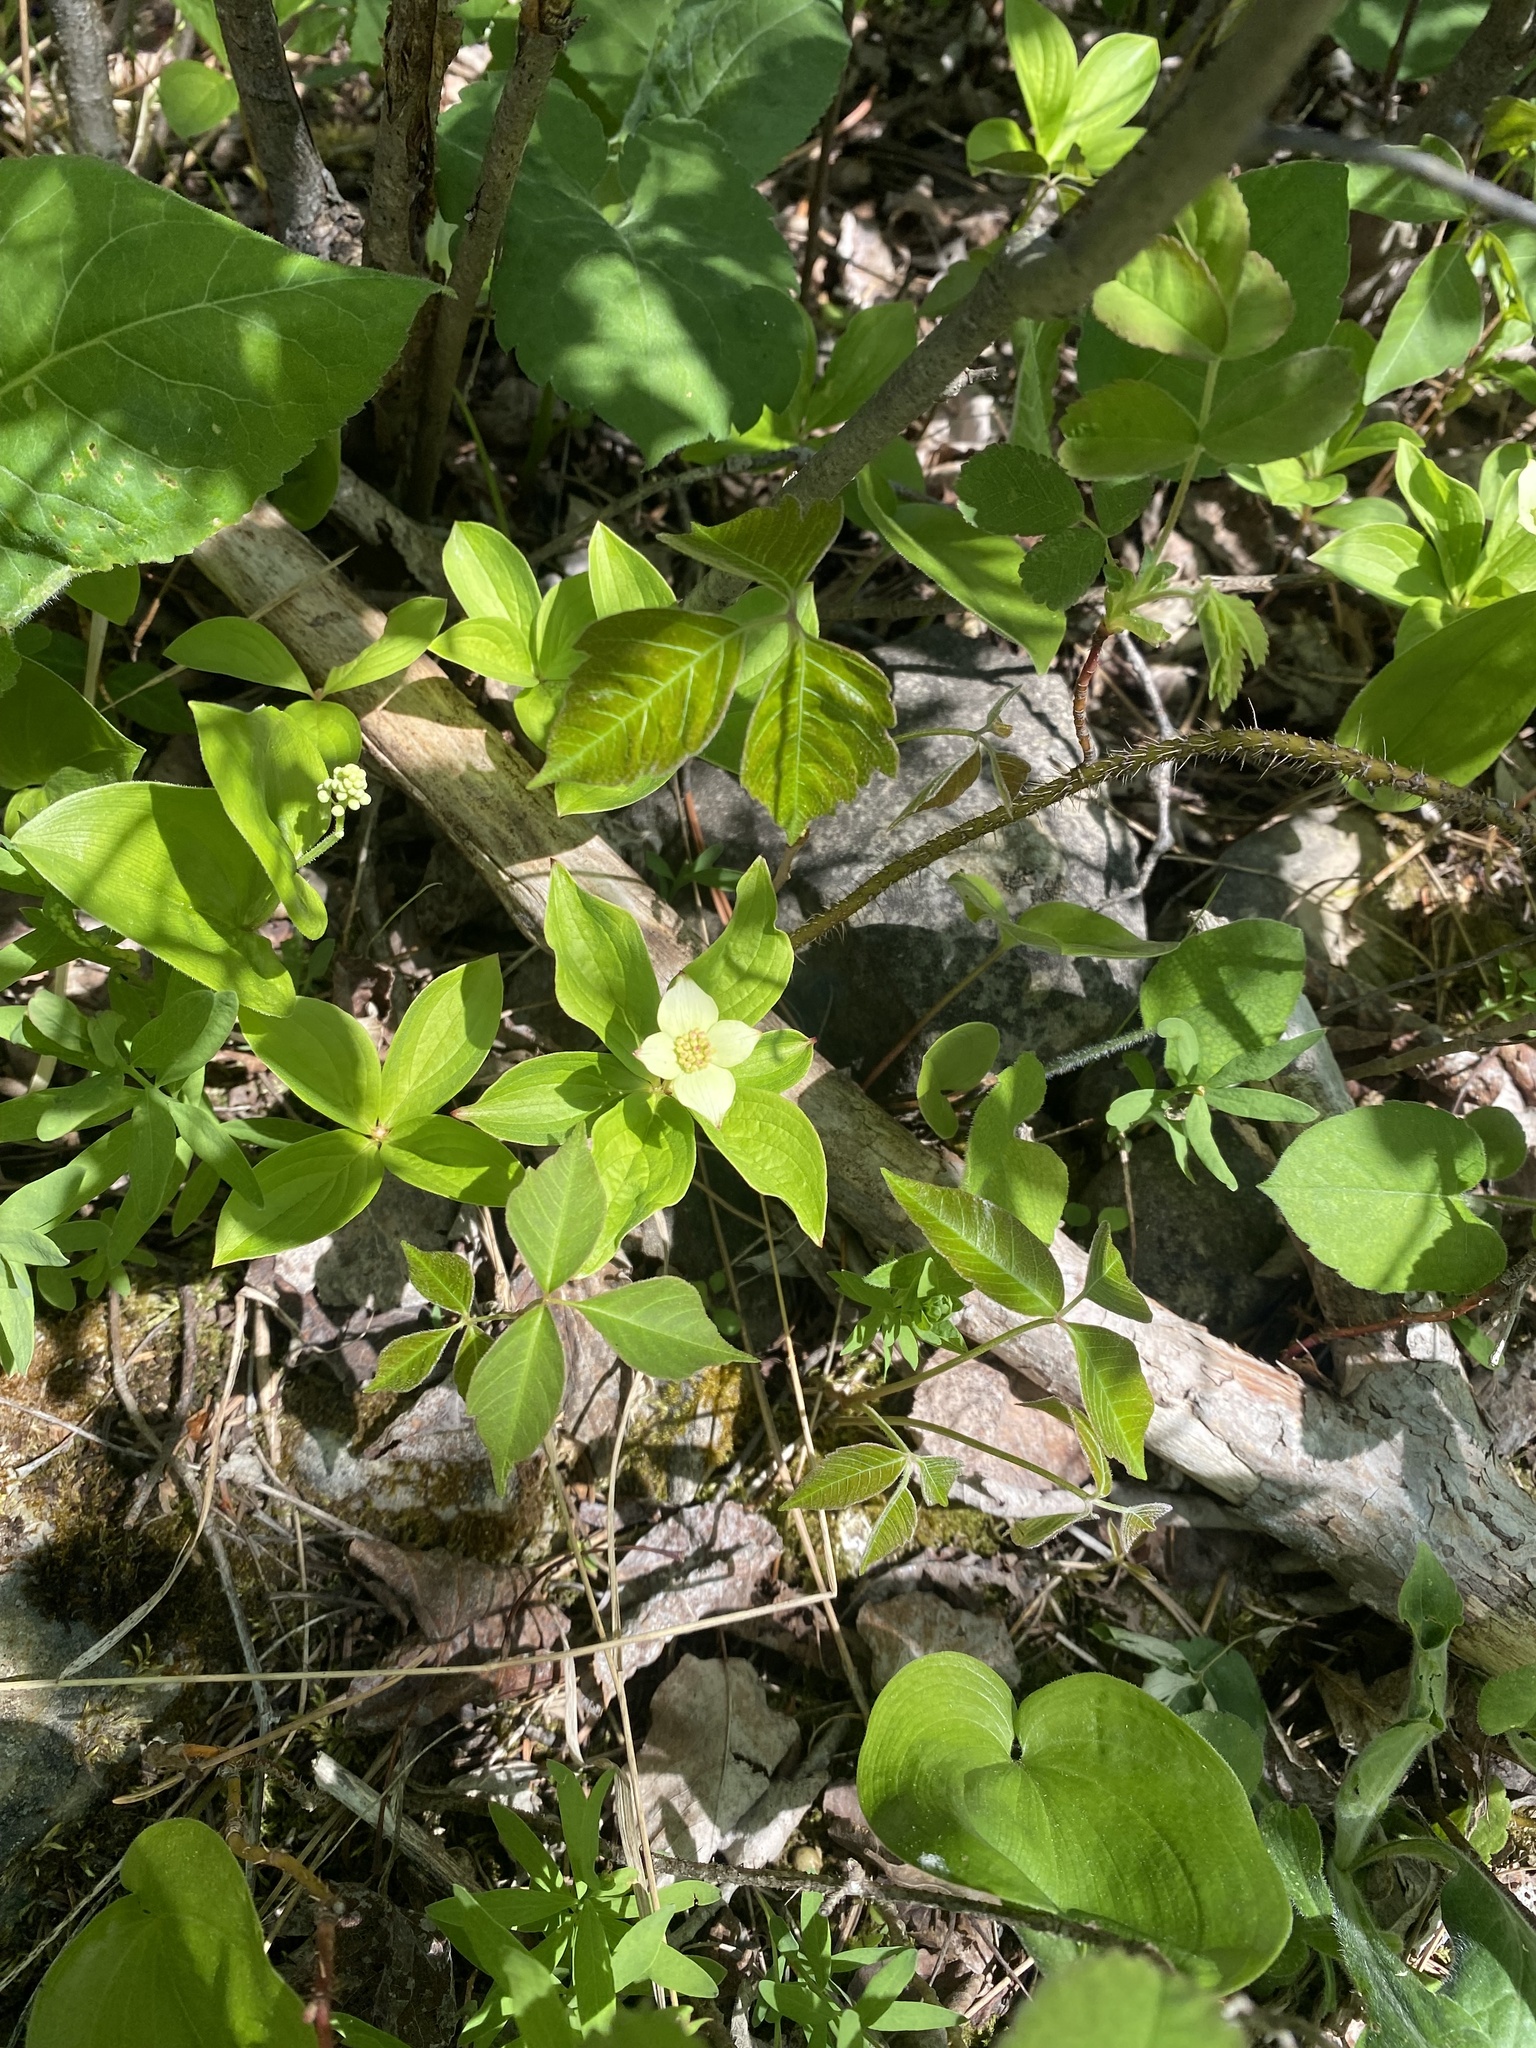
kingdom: Plantae
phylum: Tracheophyta
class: Magnoliopsida
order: Cornales
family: Cornaceae
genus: Cornus
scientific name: Cornus canadensis
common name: Creeping dogwood
